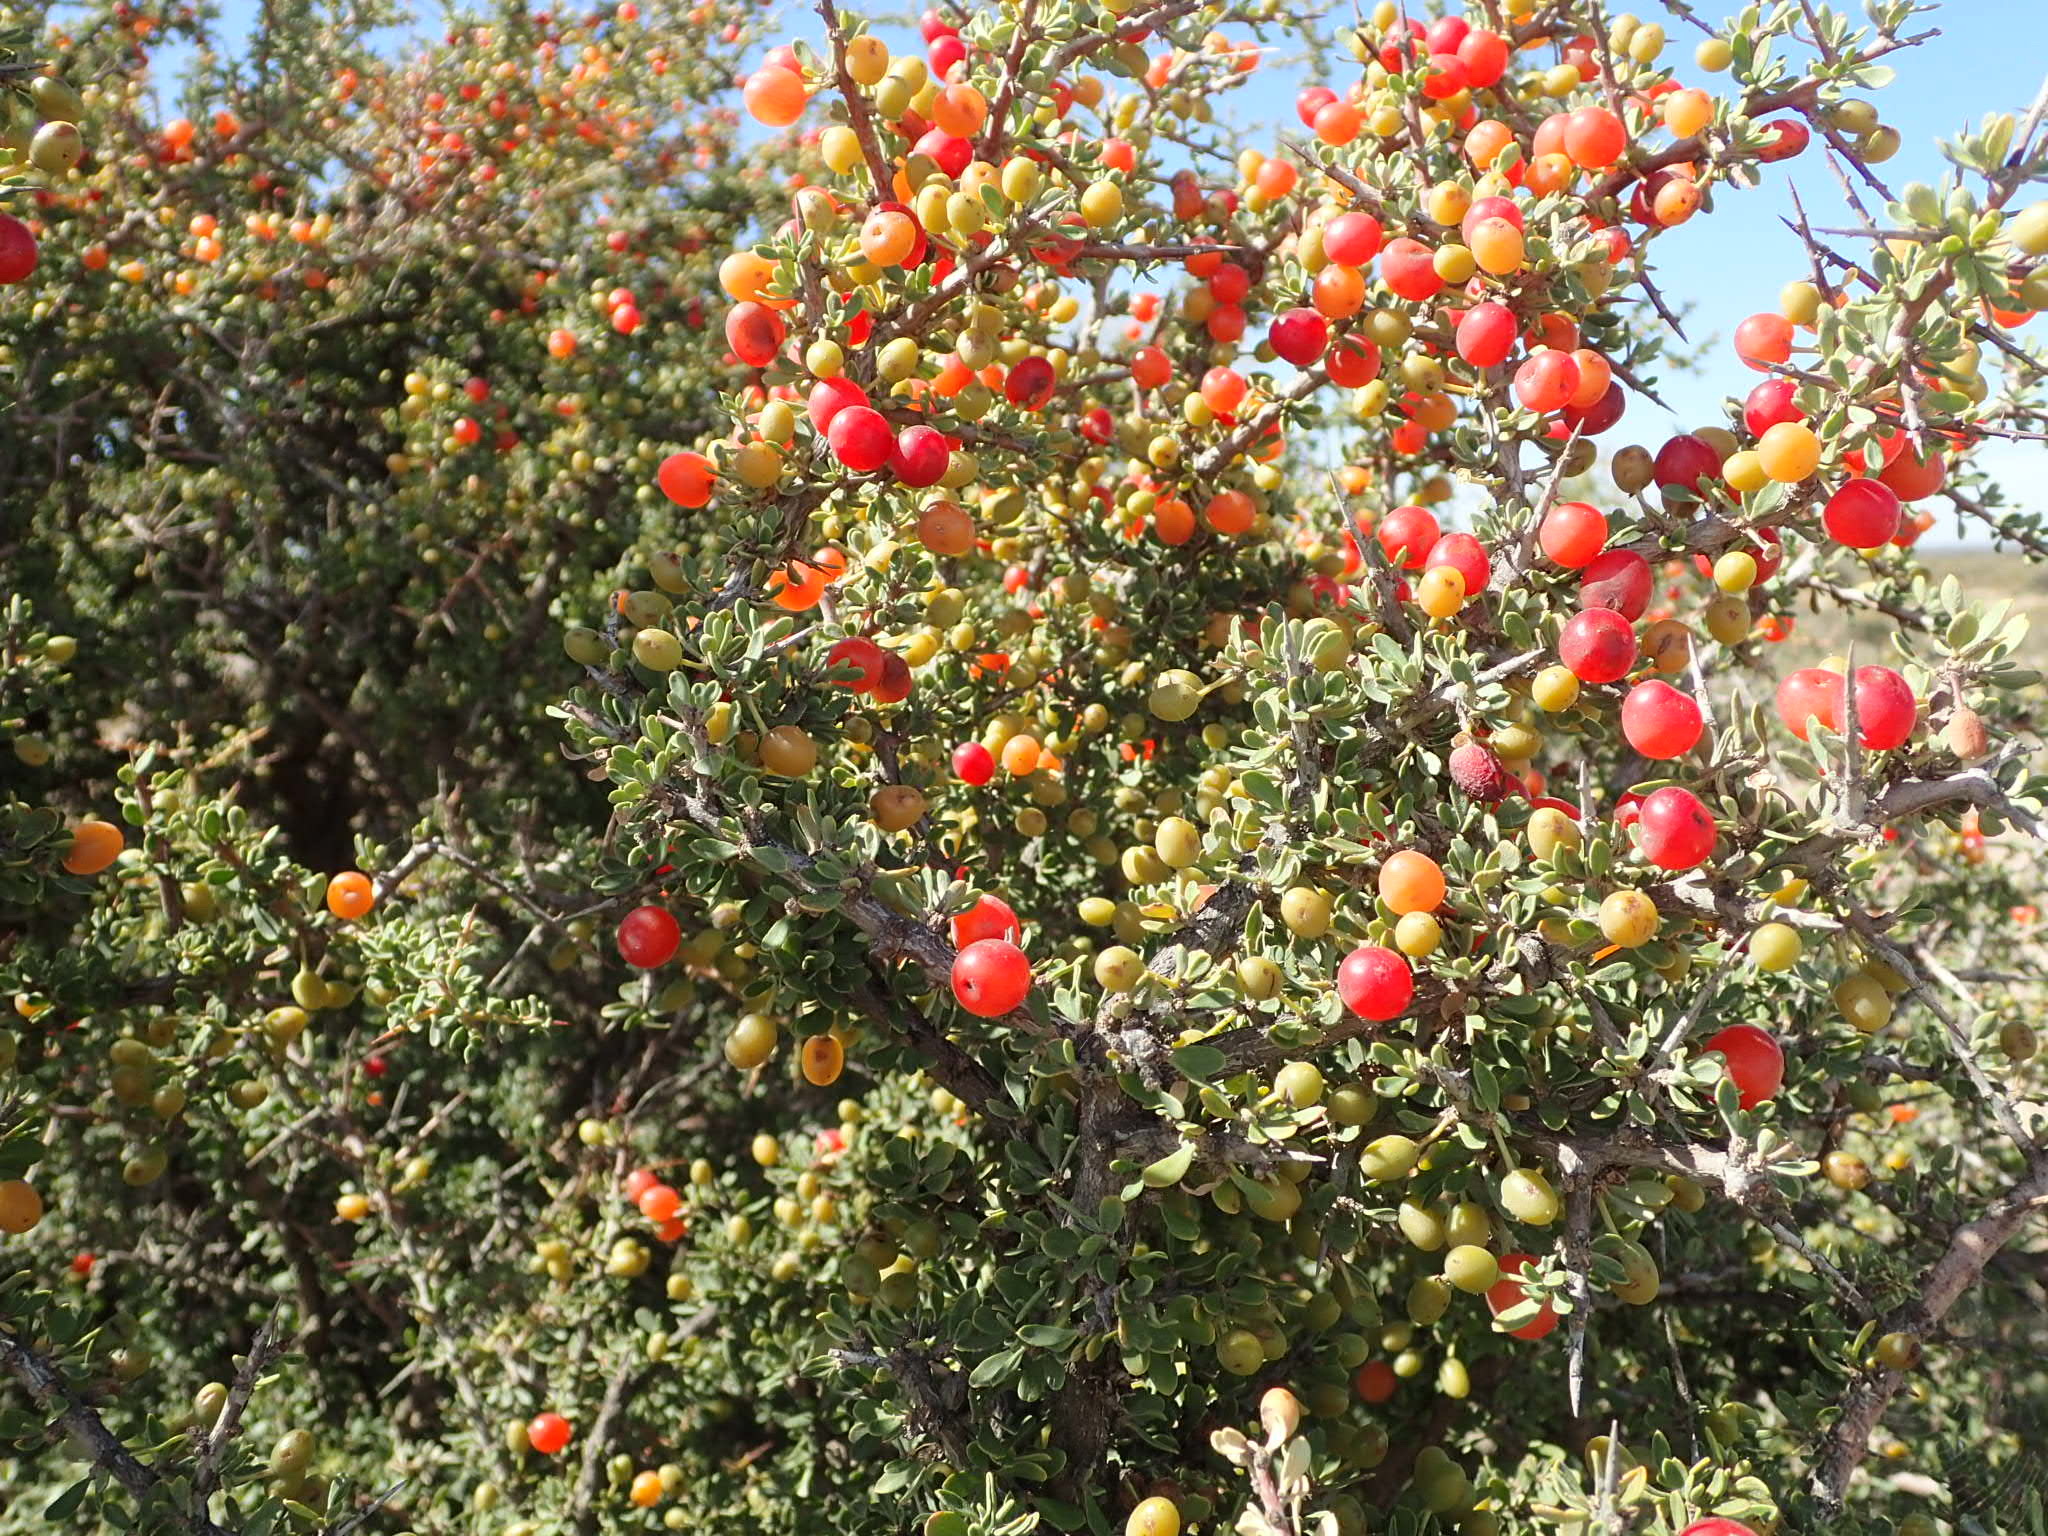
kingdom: Plantae
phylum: Tracheophyta
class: Magnoliopsida
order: Rosales
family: Rhamnaceae
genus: Condalia
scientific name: Condalia microphylla
